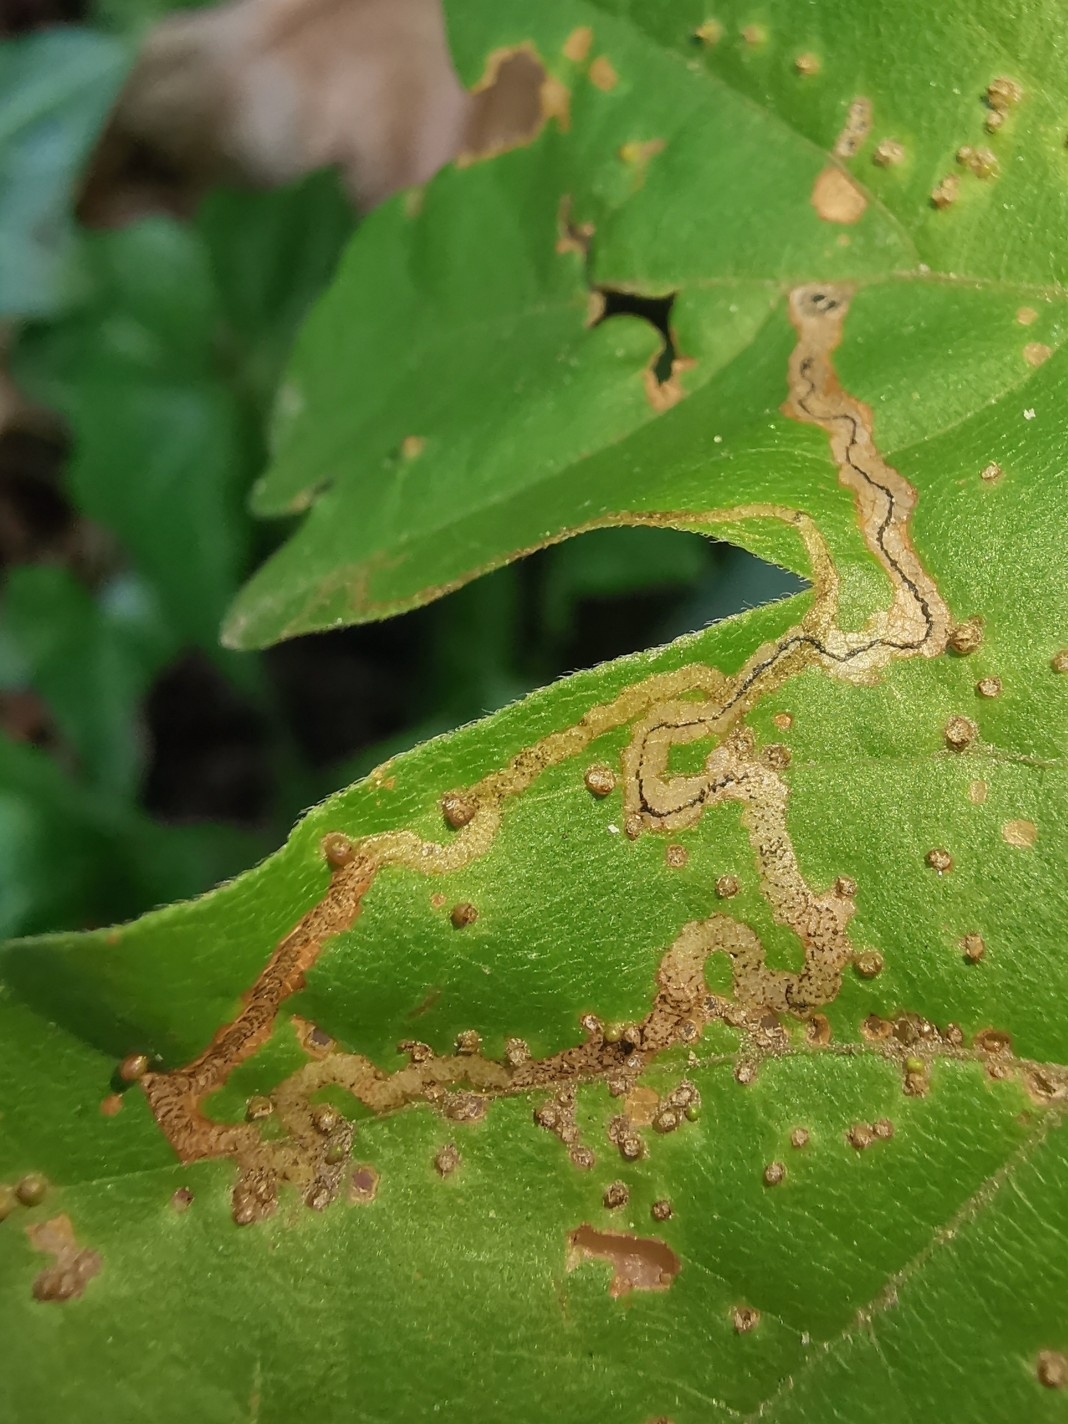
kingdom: Animalia
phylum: Arthropoda
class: Insecta
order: Lepidoptera
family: Nepticulidae
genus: Stigmella
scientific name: Stigmella aceris
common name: Scarce maple pigmy
